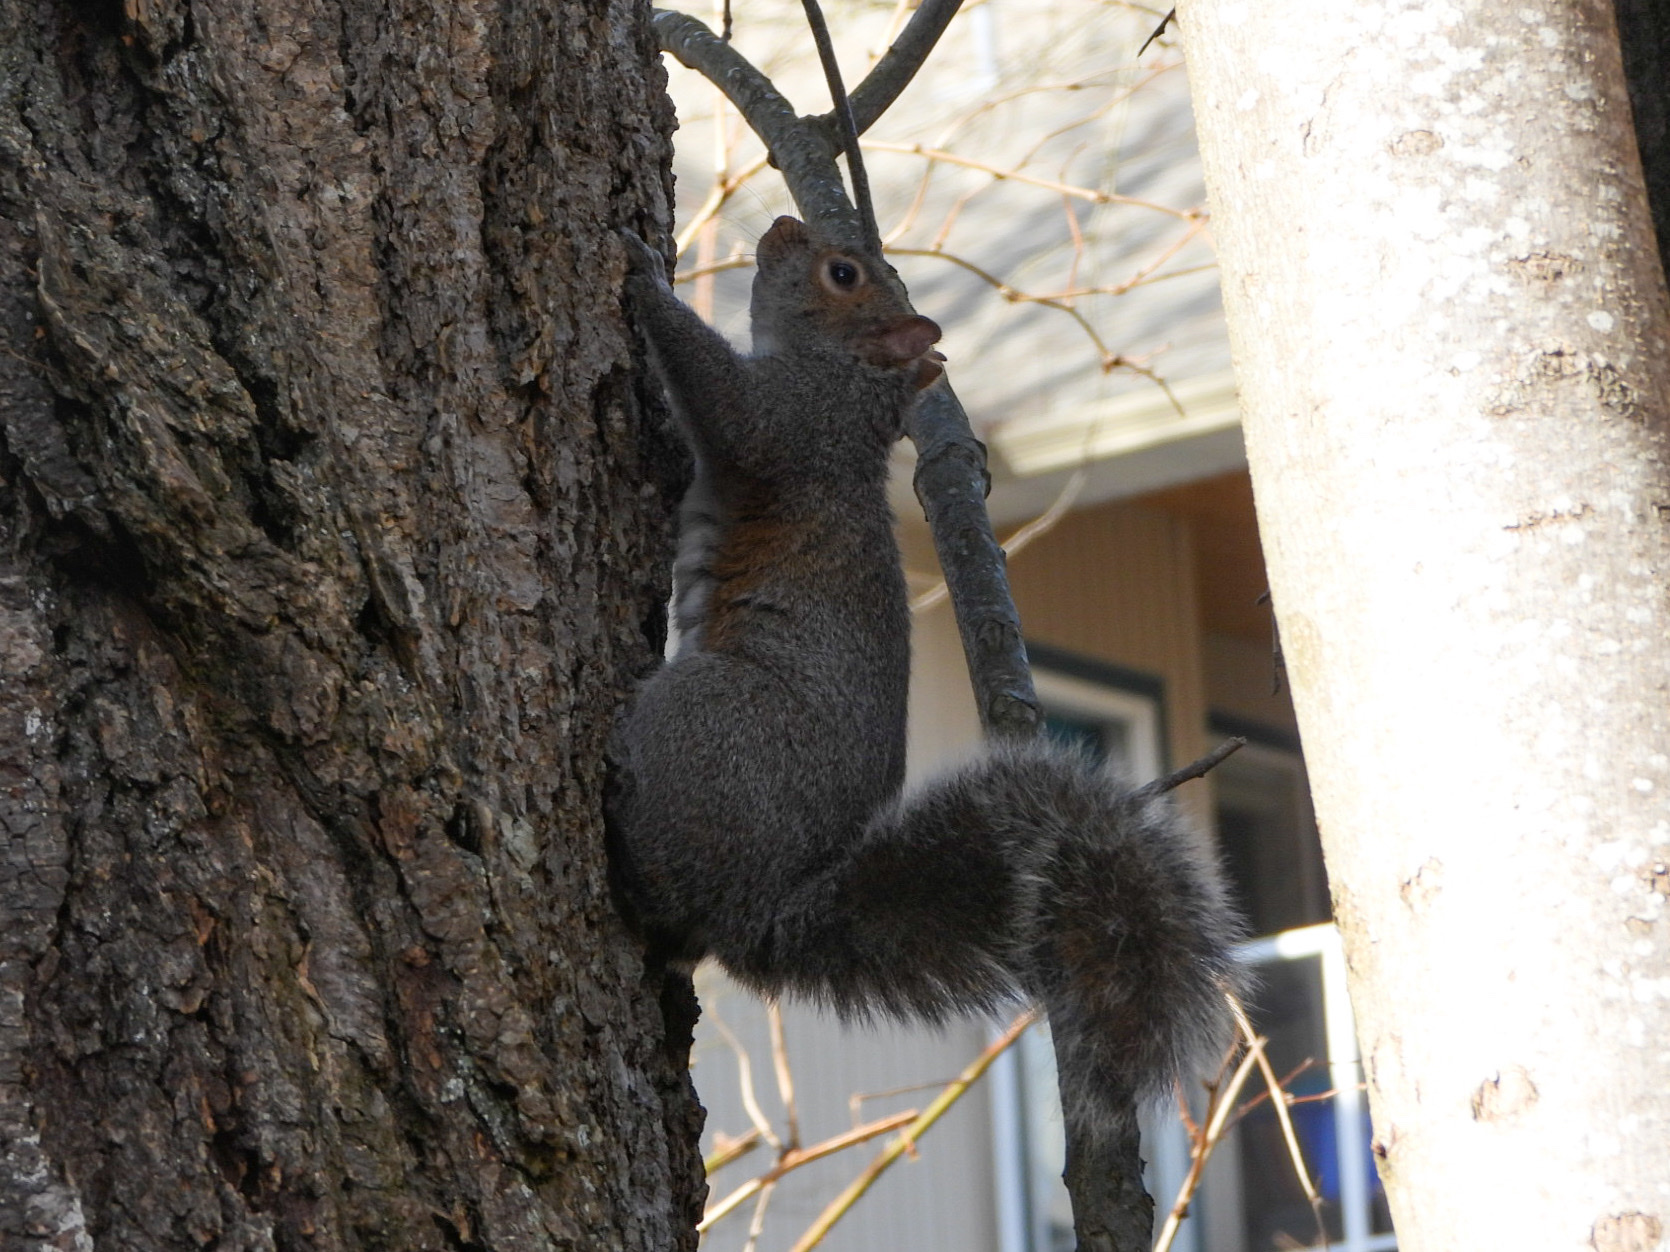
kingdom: Animalia
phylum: Chordata
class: Mammalia
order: Rodentia
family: Sciuridae
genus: Sciurus
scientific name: Sciurus carolinensis
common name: Eastern gray squirrel
